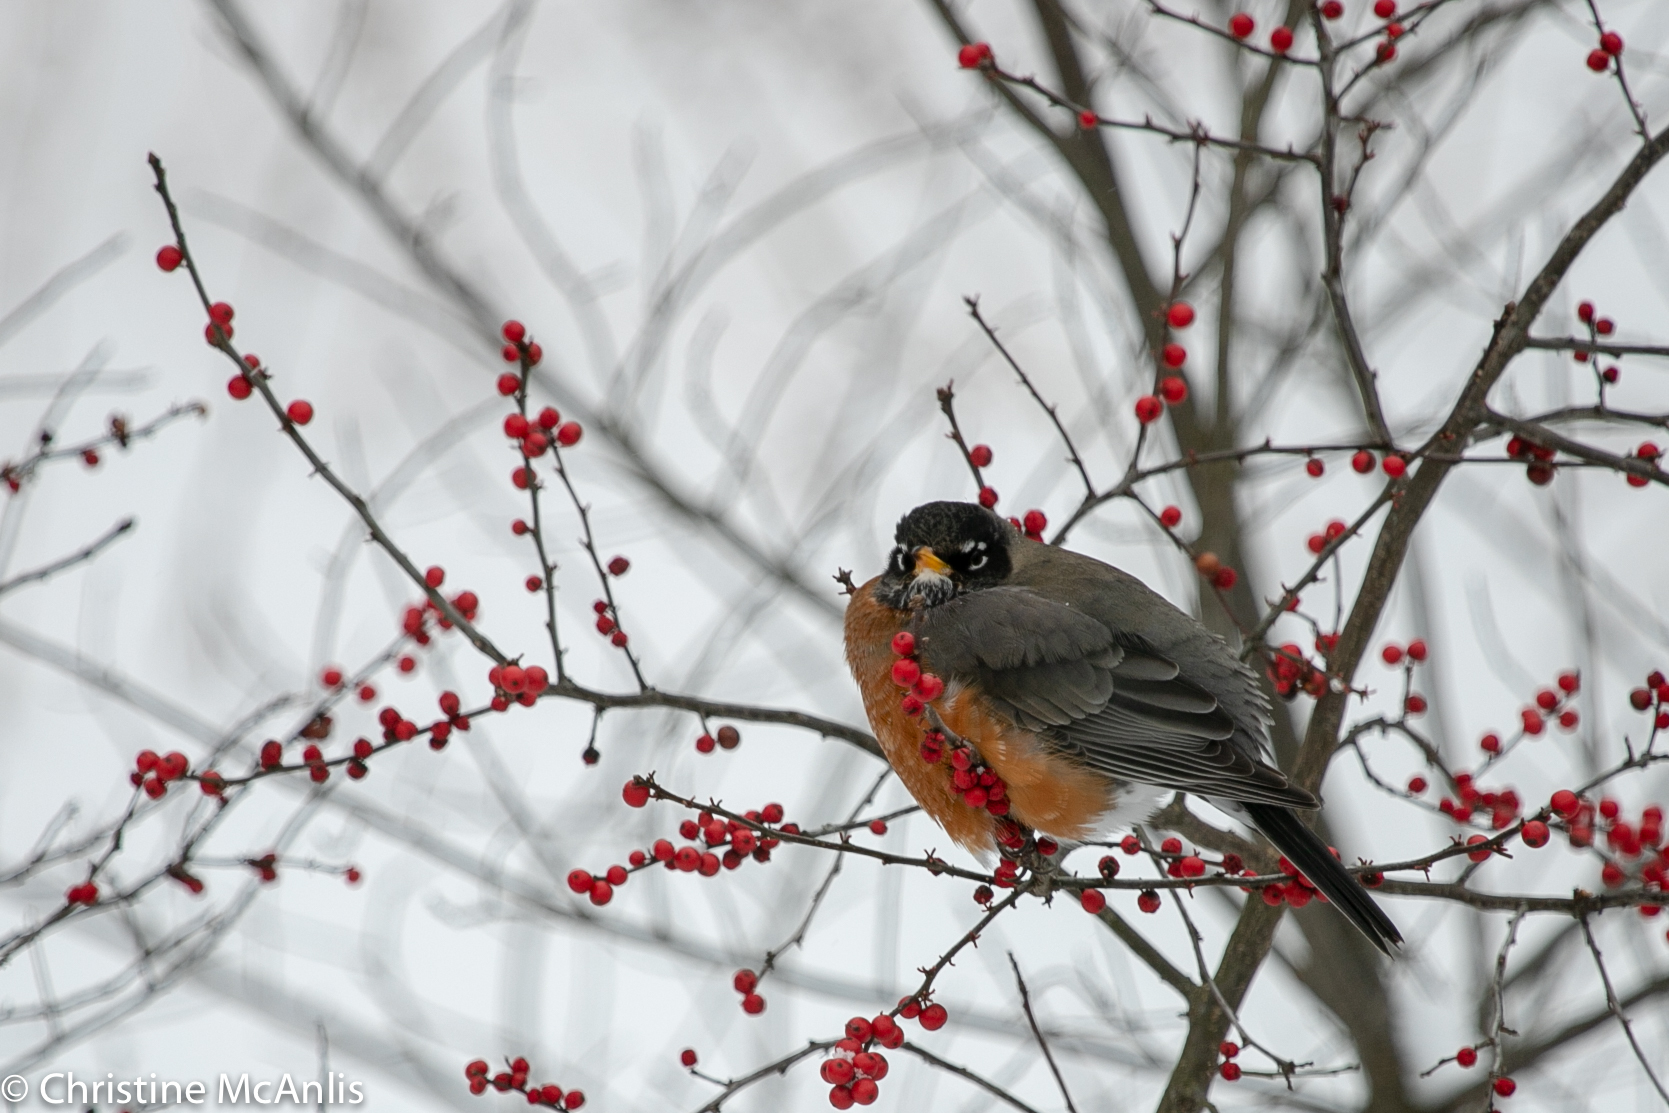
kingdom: Animalia
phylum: Chordata
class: Aves
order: Passeriformes
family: Turdidae
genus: Turdus
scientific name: Turdus migratorius
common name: American robin
